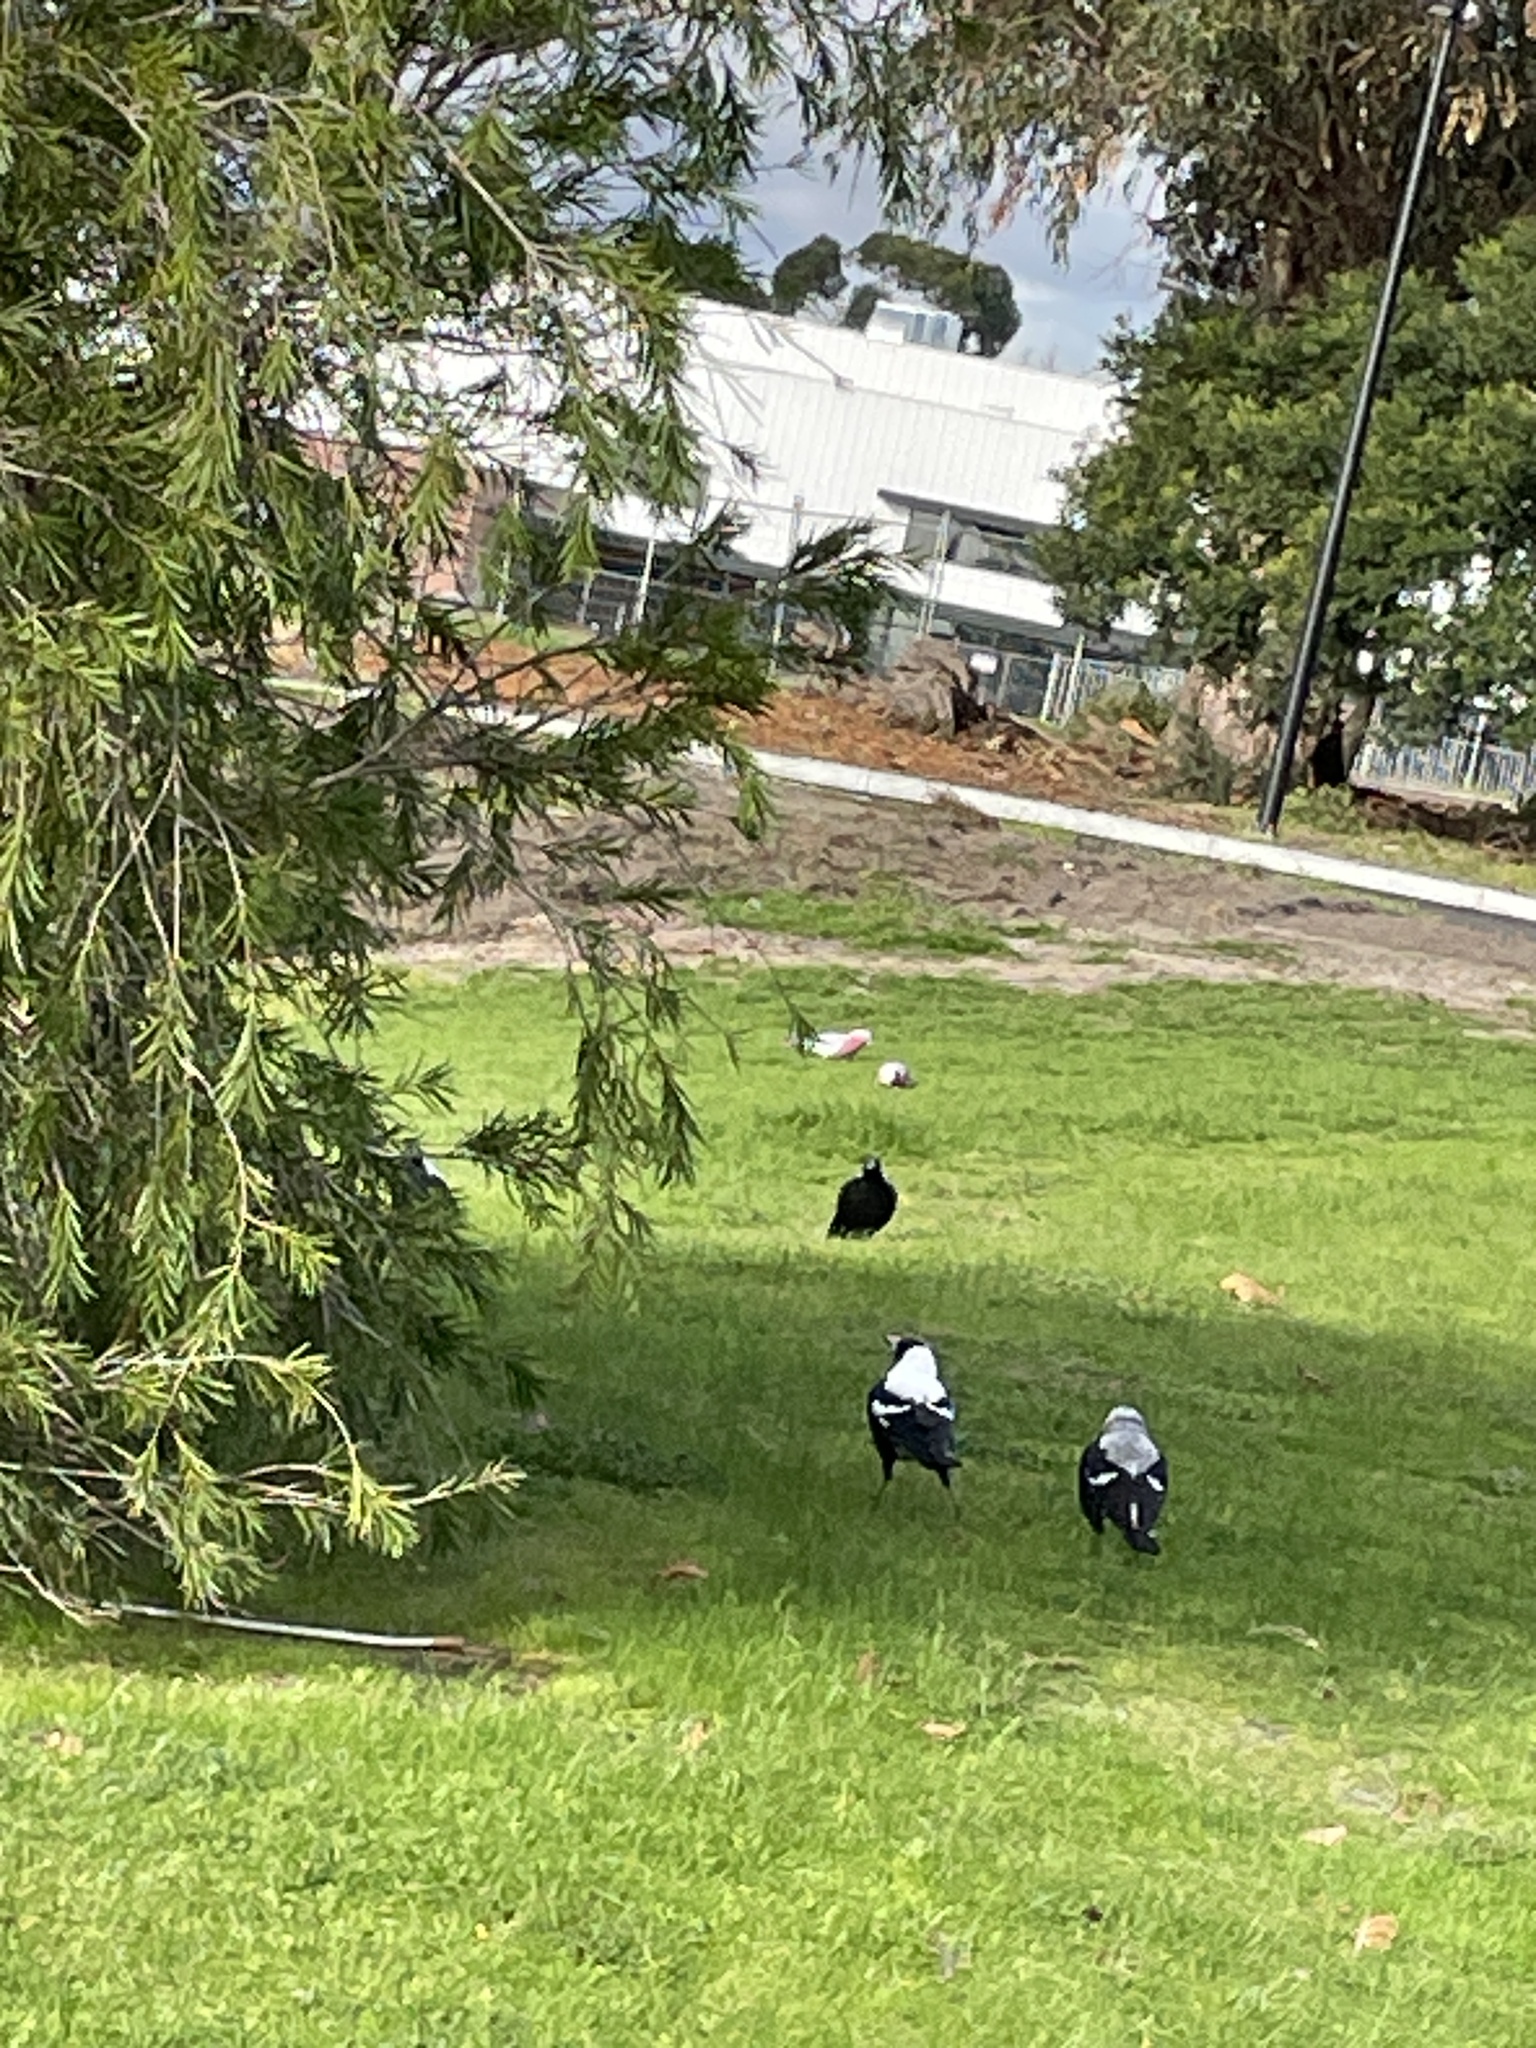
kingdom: Animalia
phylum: Chordata
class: Aves
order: Passeriformes
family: Cracticidae
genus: Gymnorhina
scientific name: Gymnorhina tibicen
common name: Australian magpie
